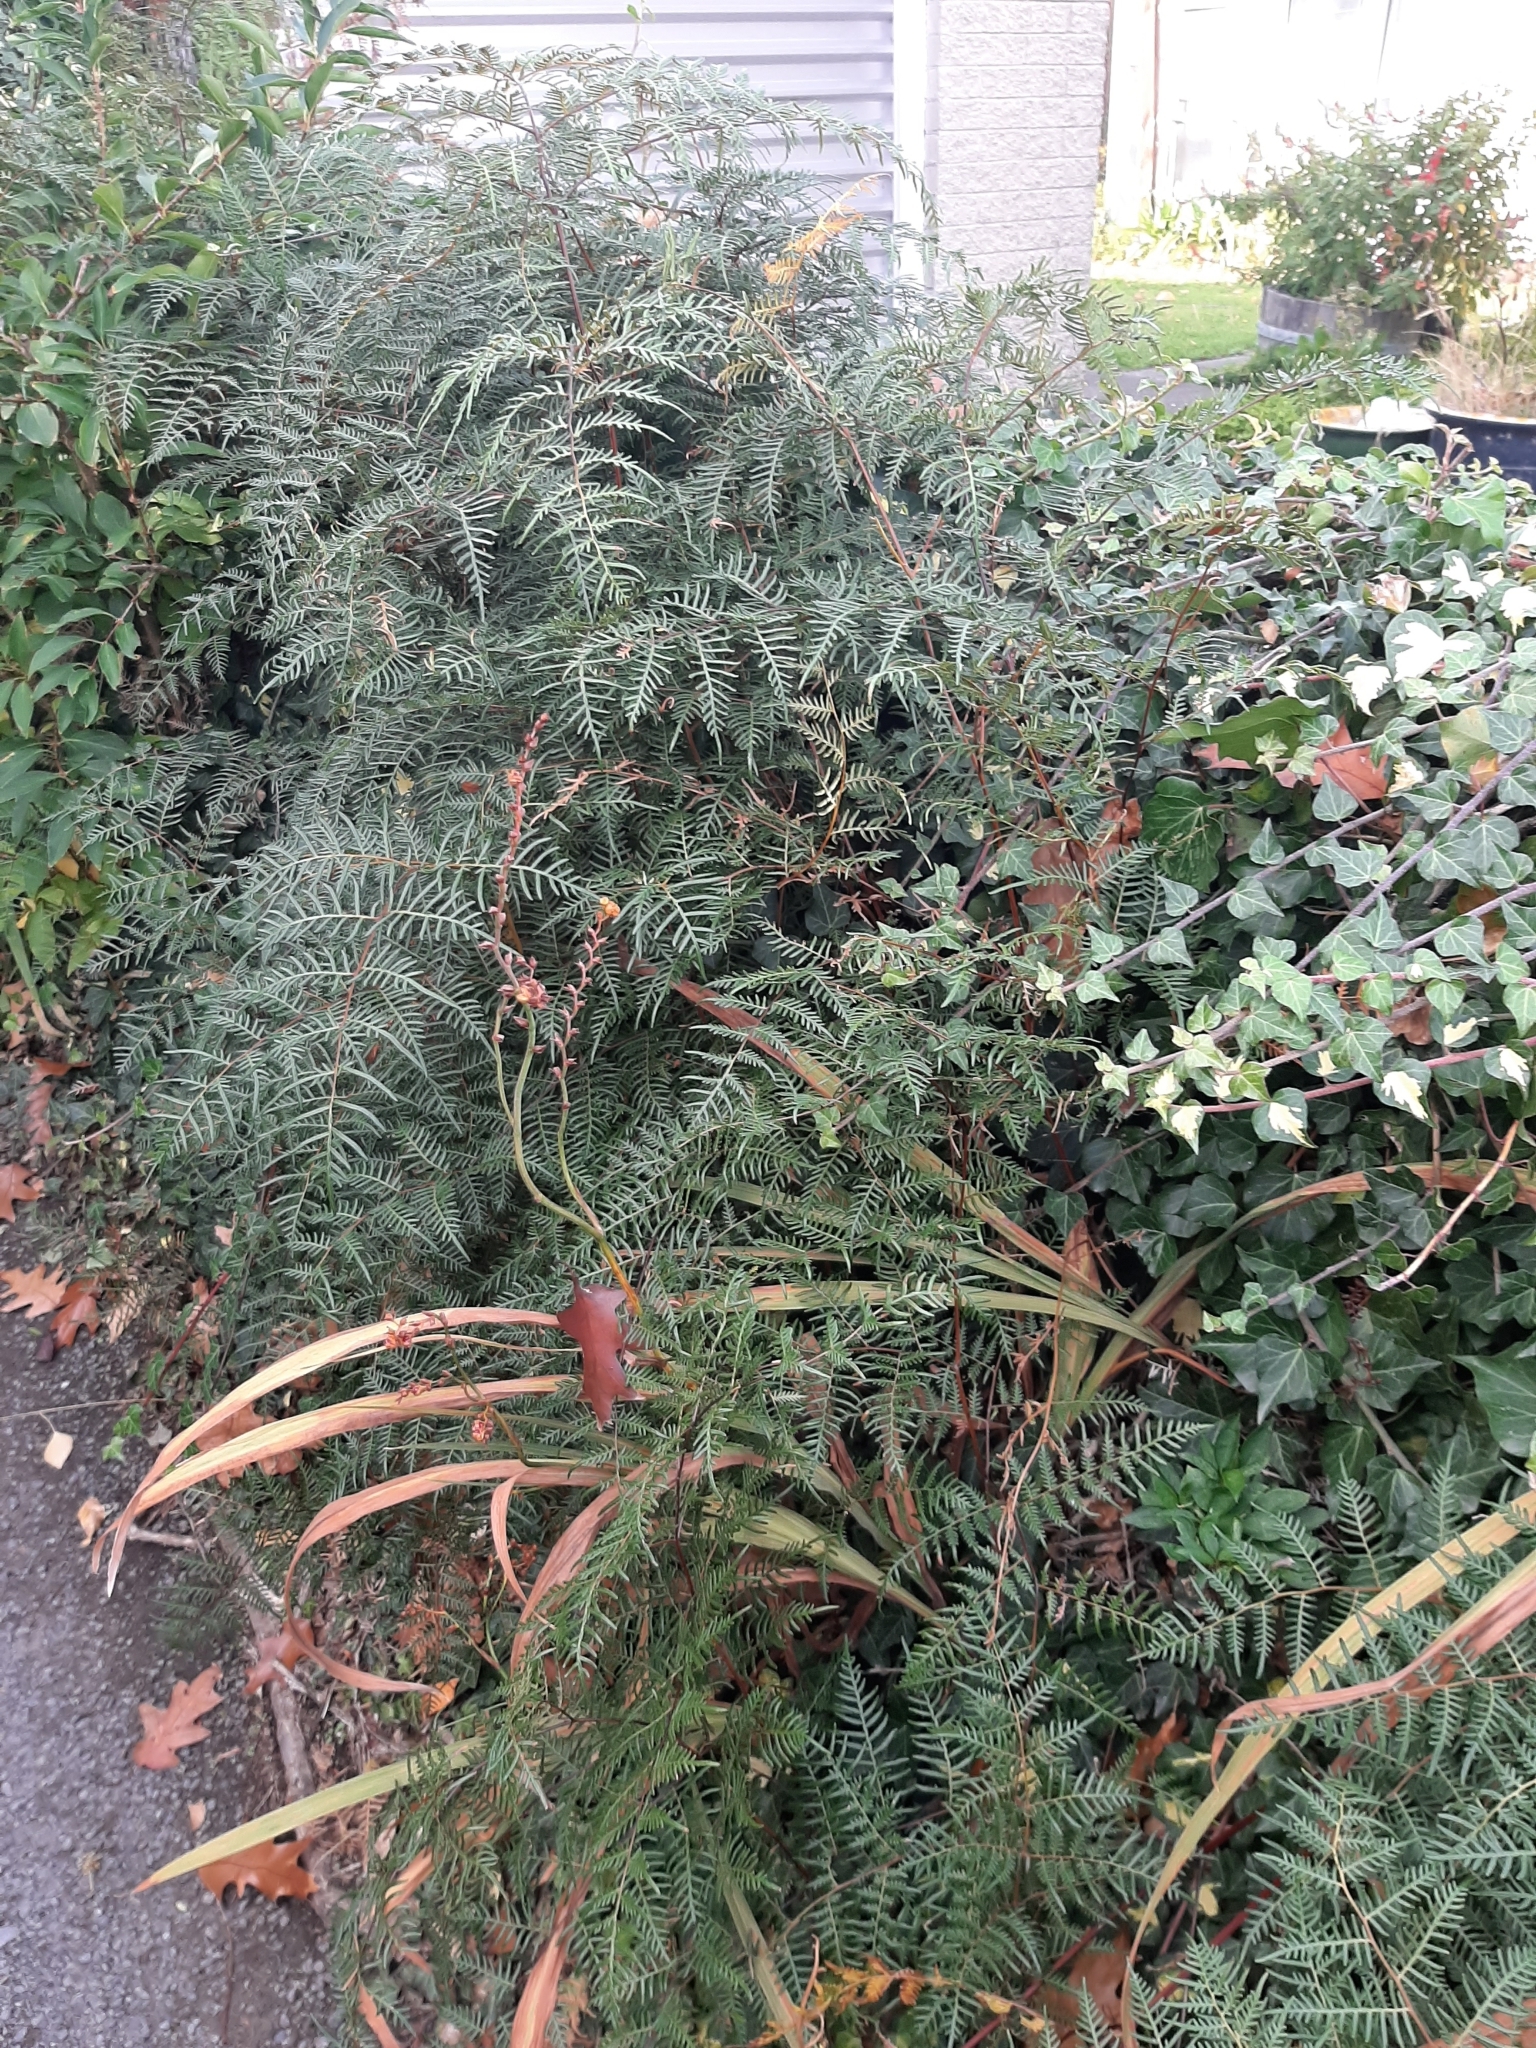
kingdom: Plantae
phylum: Tracheophyta
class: Polypodiopsida
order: Polypodiales
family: Dennstaedtiaceae
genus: Pteridium
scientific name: Pteridium esculentum
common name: Bracken fern
